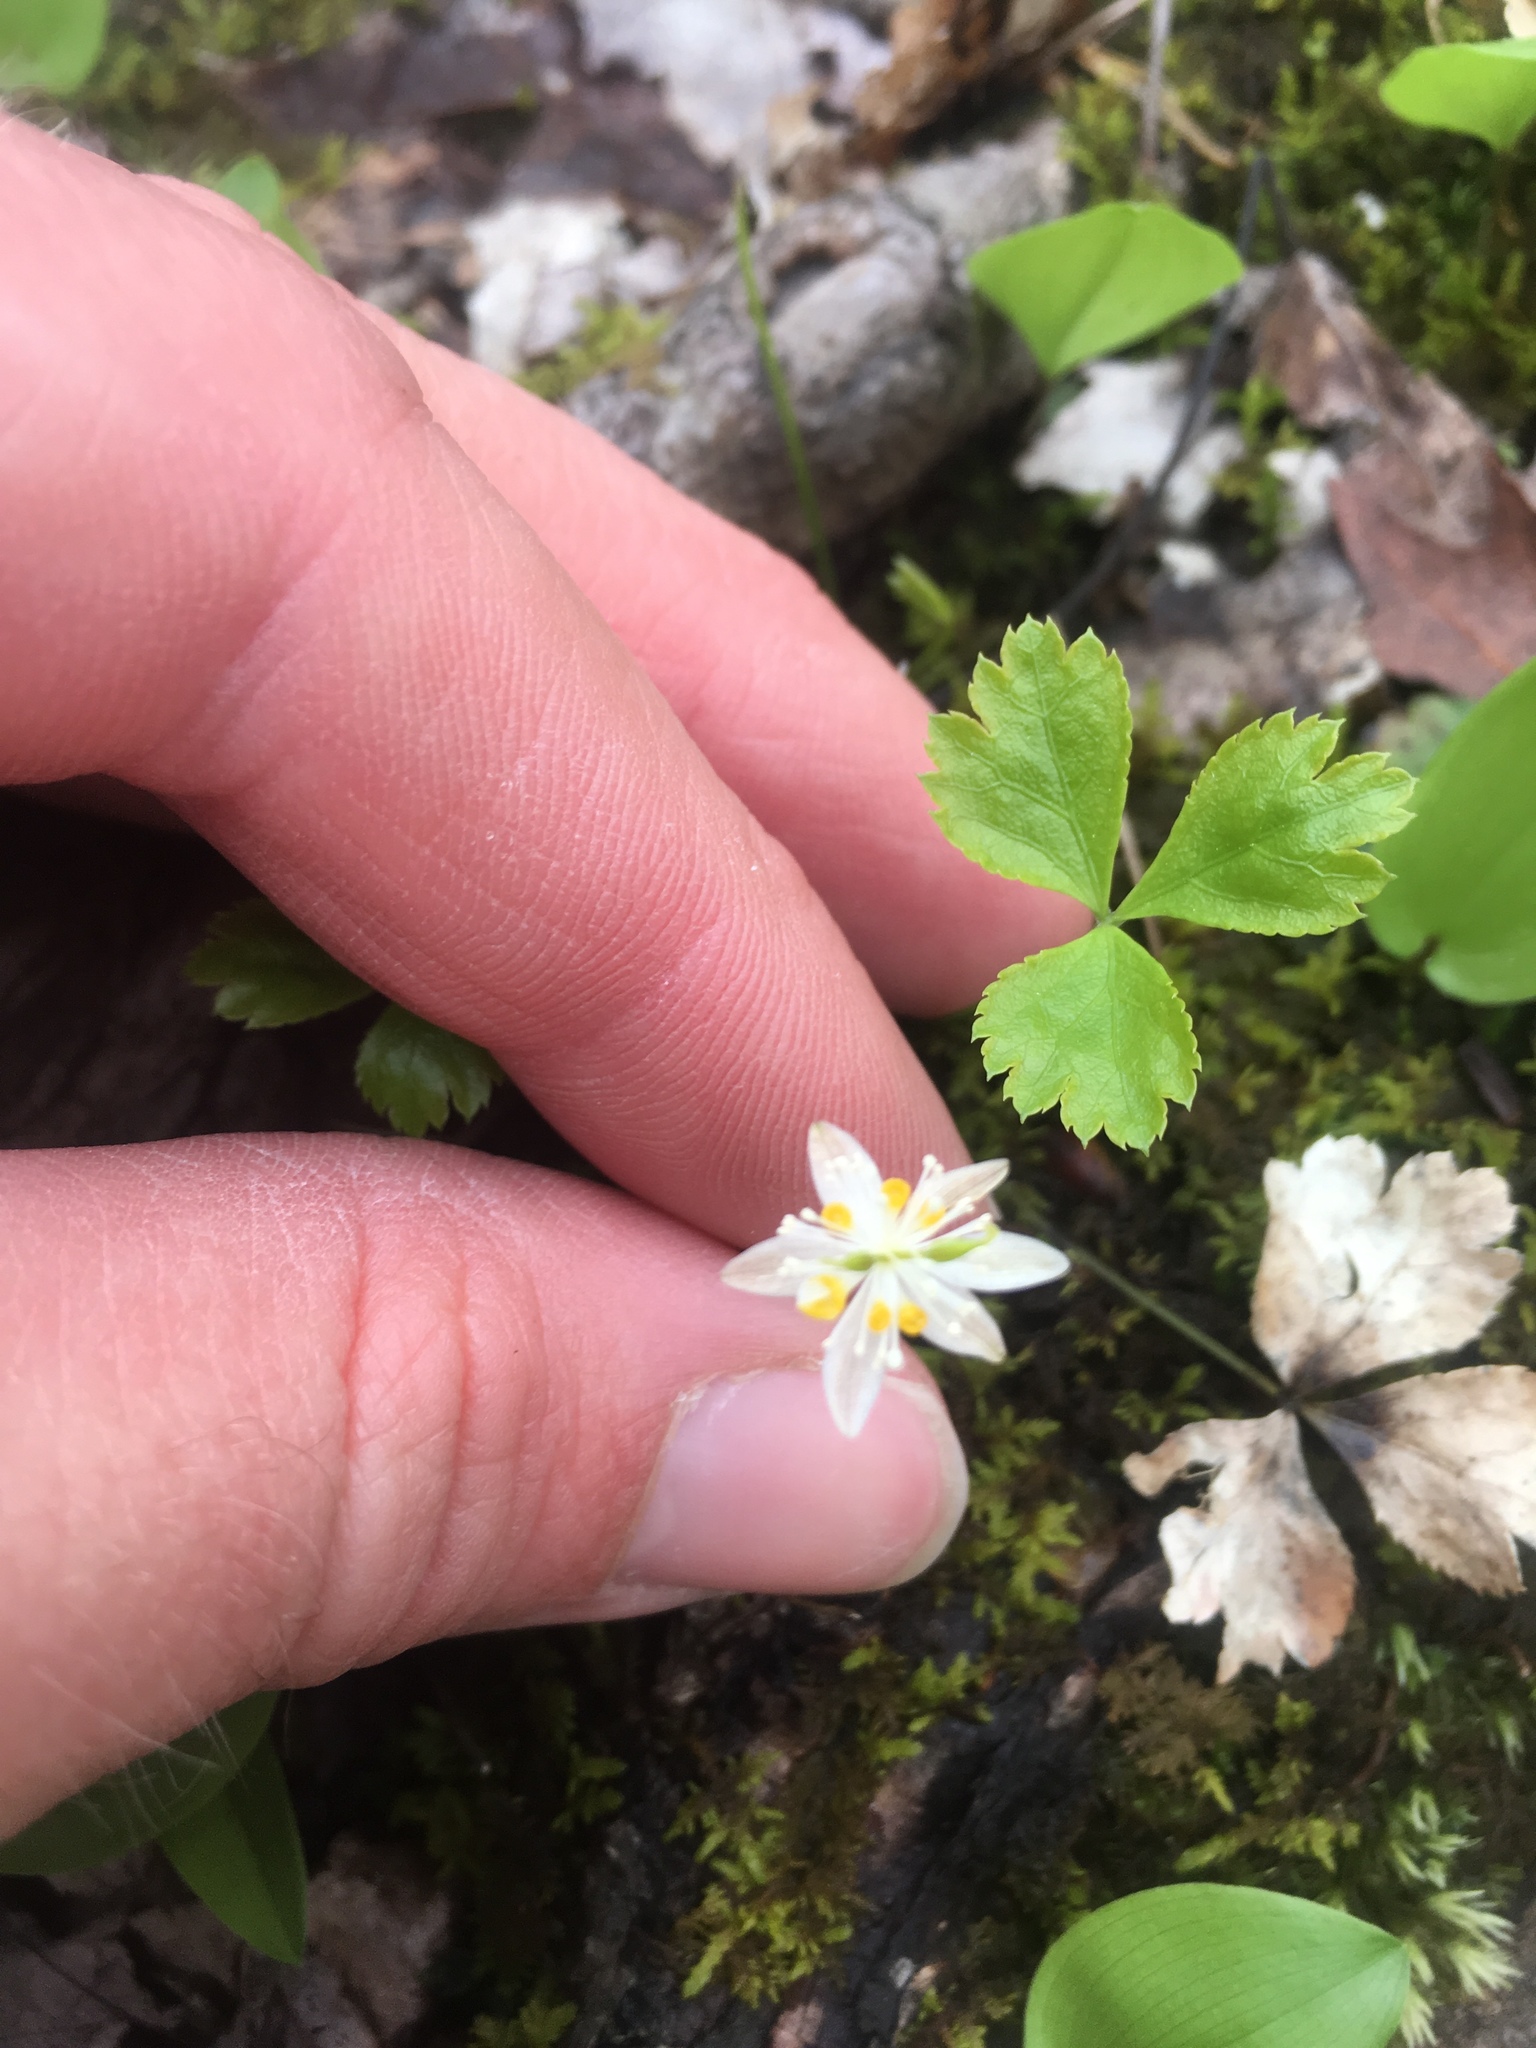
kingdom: Plantae
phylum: Tracheophyta
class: Magnoliopsida
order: Ranunculales
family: Ranunculaceae
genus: Coptis
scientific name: Coptis trifolia
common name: Canker-root
